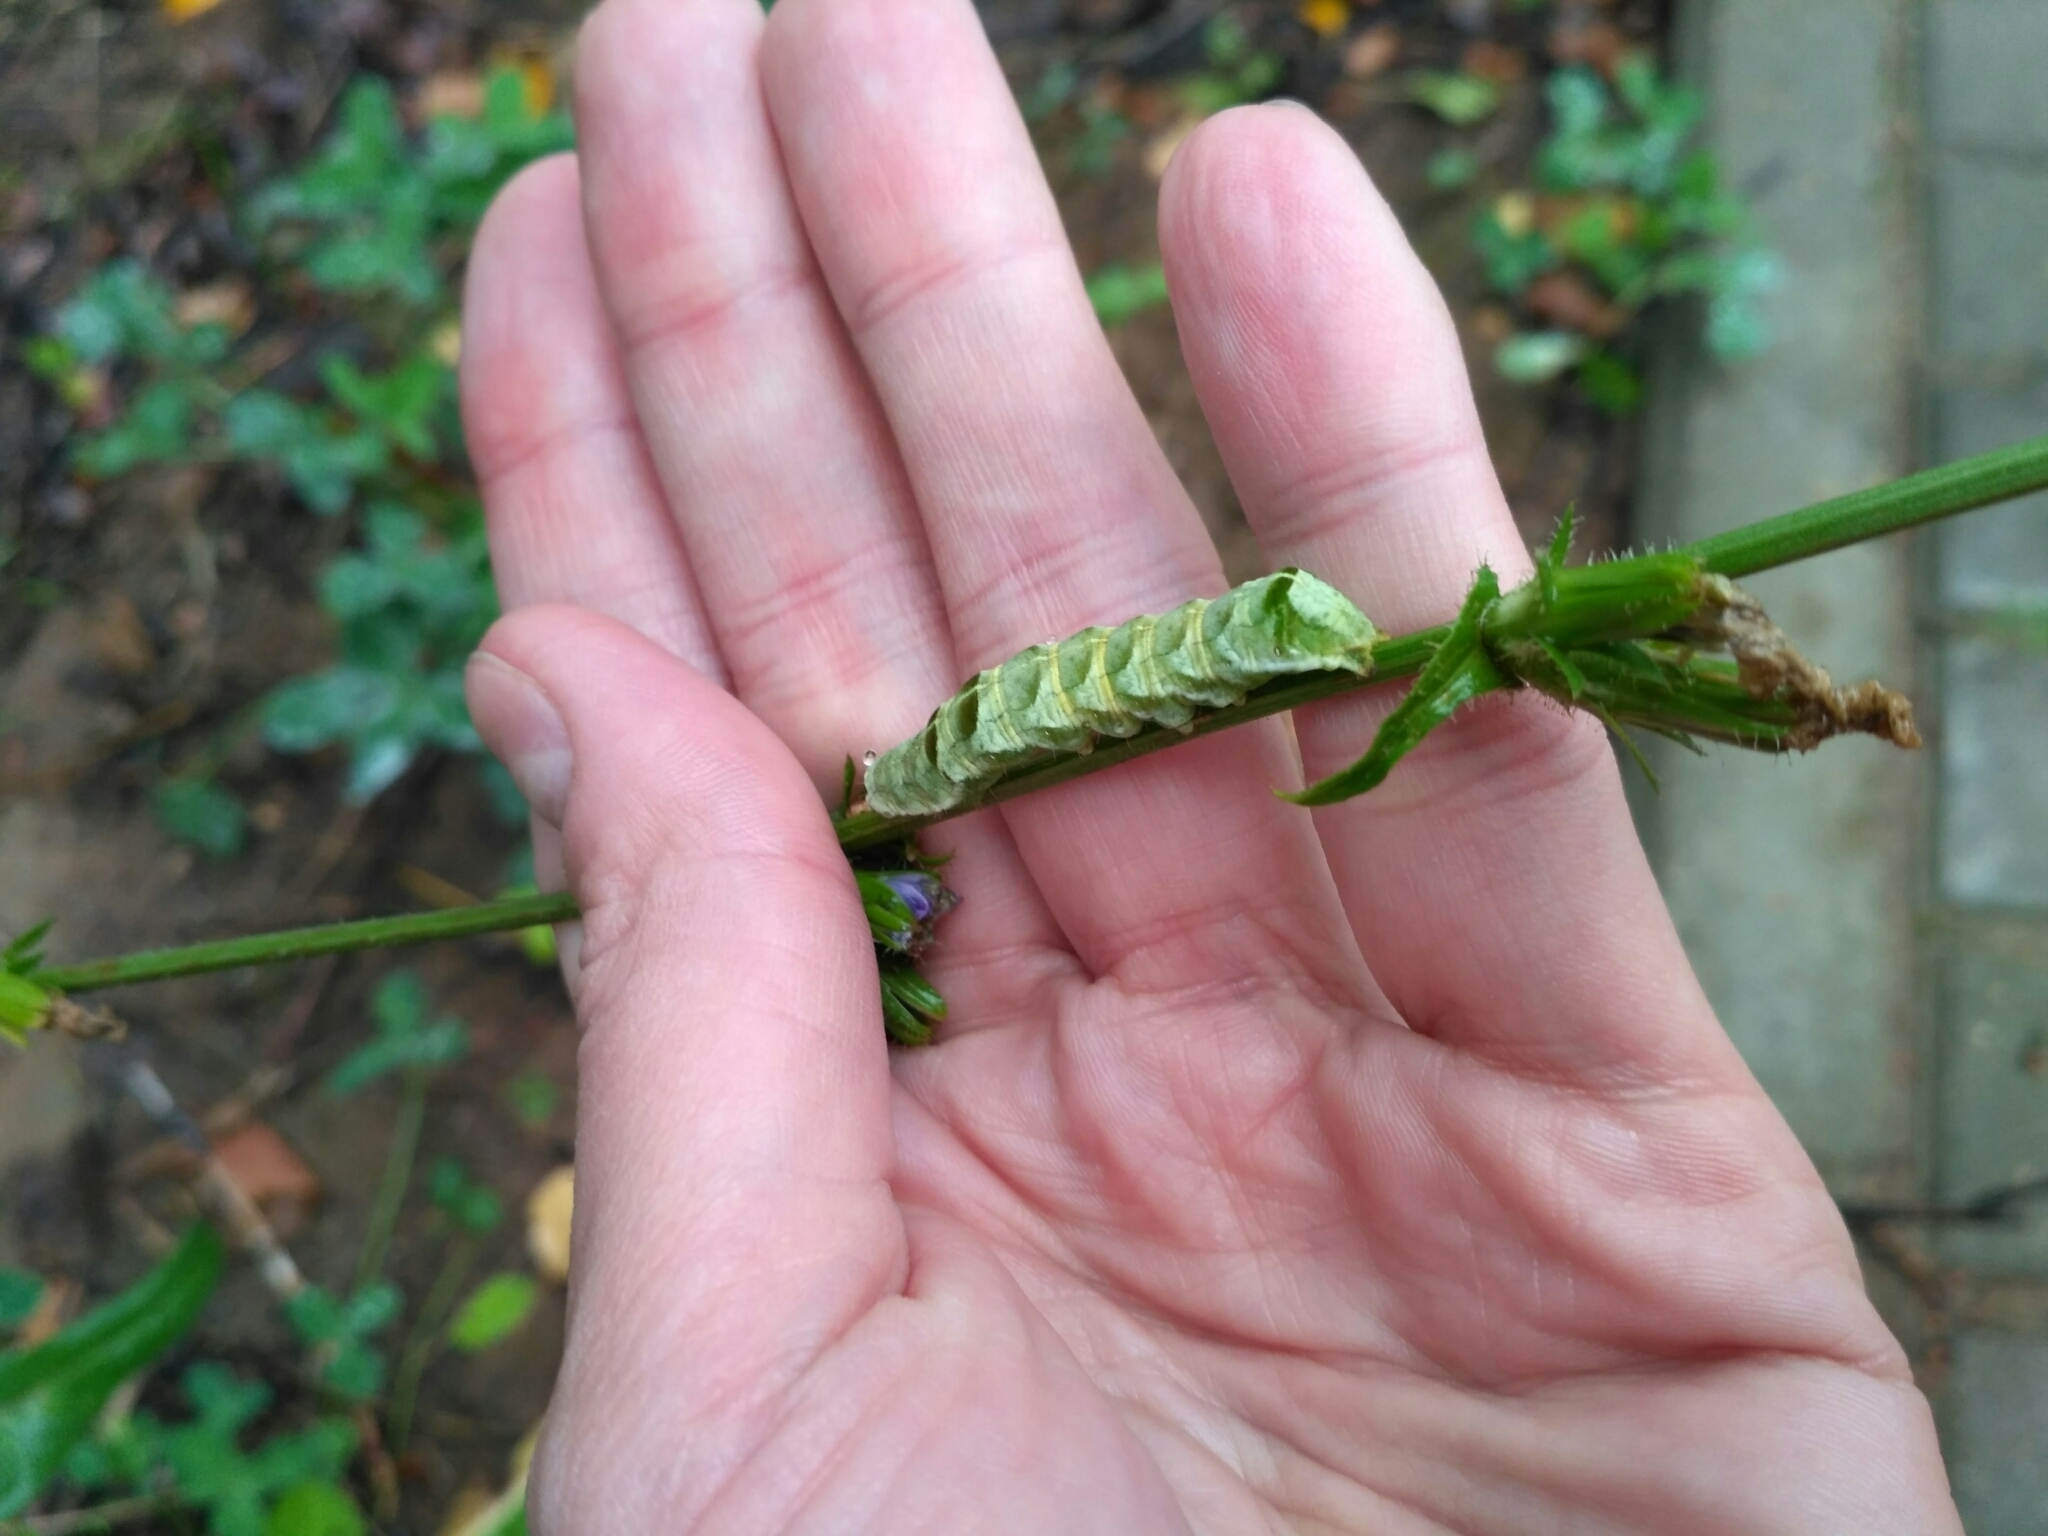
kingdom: Animalia
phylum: Arthropoda
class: Insecta
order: Lepidoptera
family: Noctuidae
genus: Melanchra
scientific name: Melanchra persicariae
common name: Dot moth
